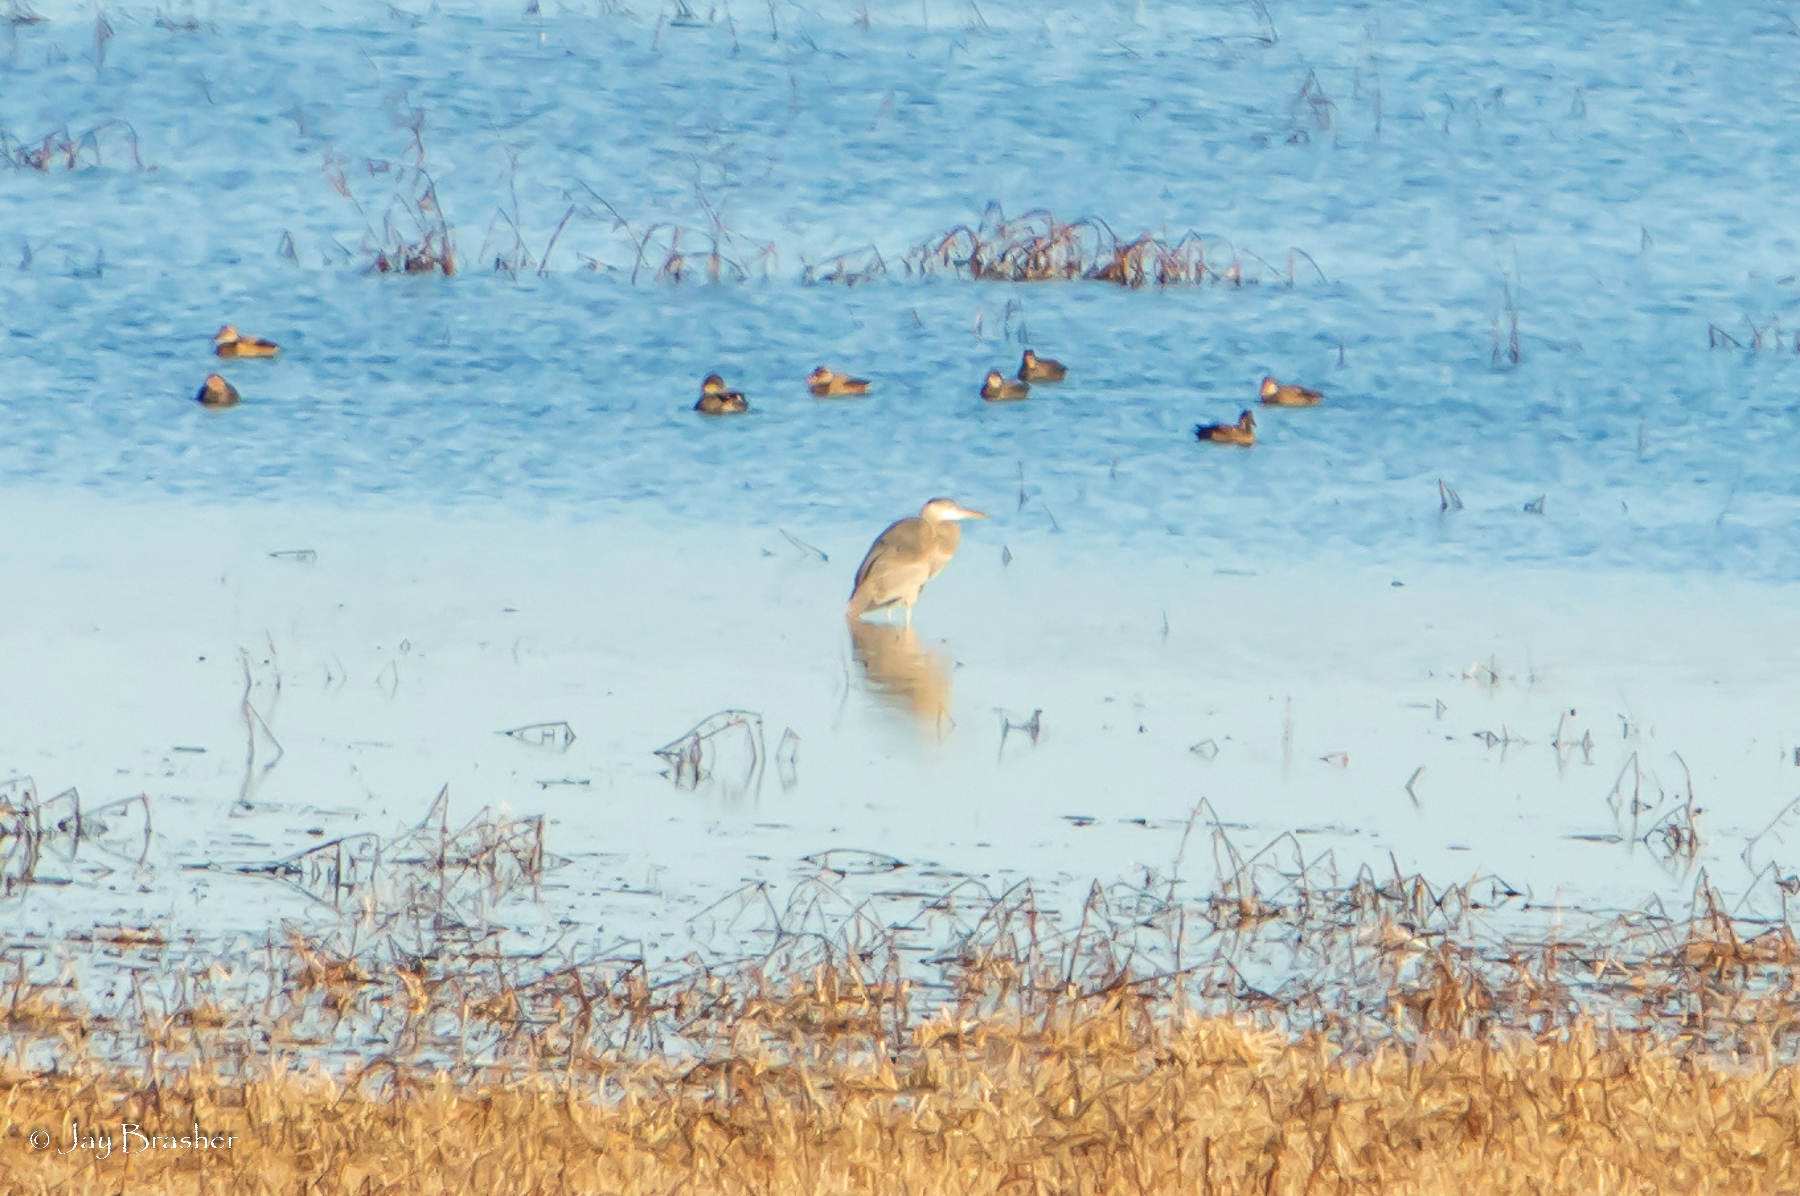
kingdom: Animalia
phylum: Chordata
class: Aves
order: Pelecaniformes
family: Ardeidae
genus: Ardea
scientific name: Ardea herodias
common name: Great blue heron
